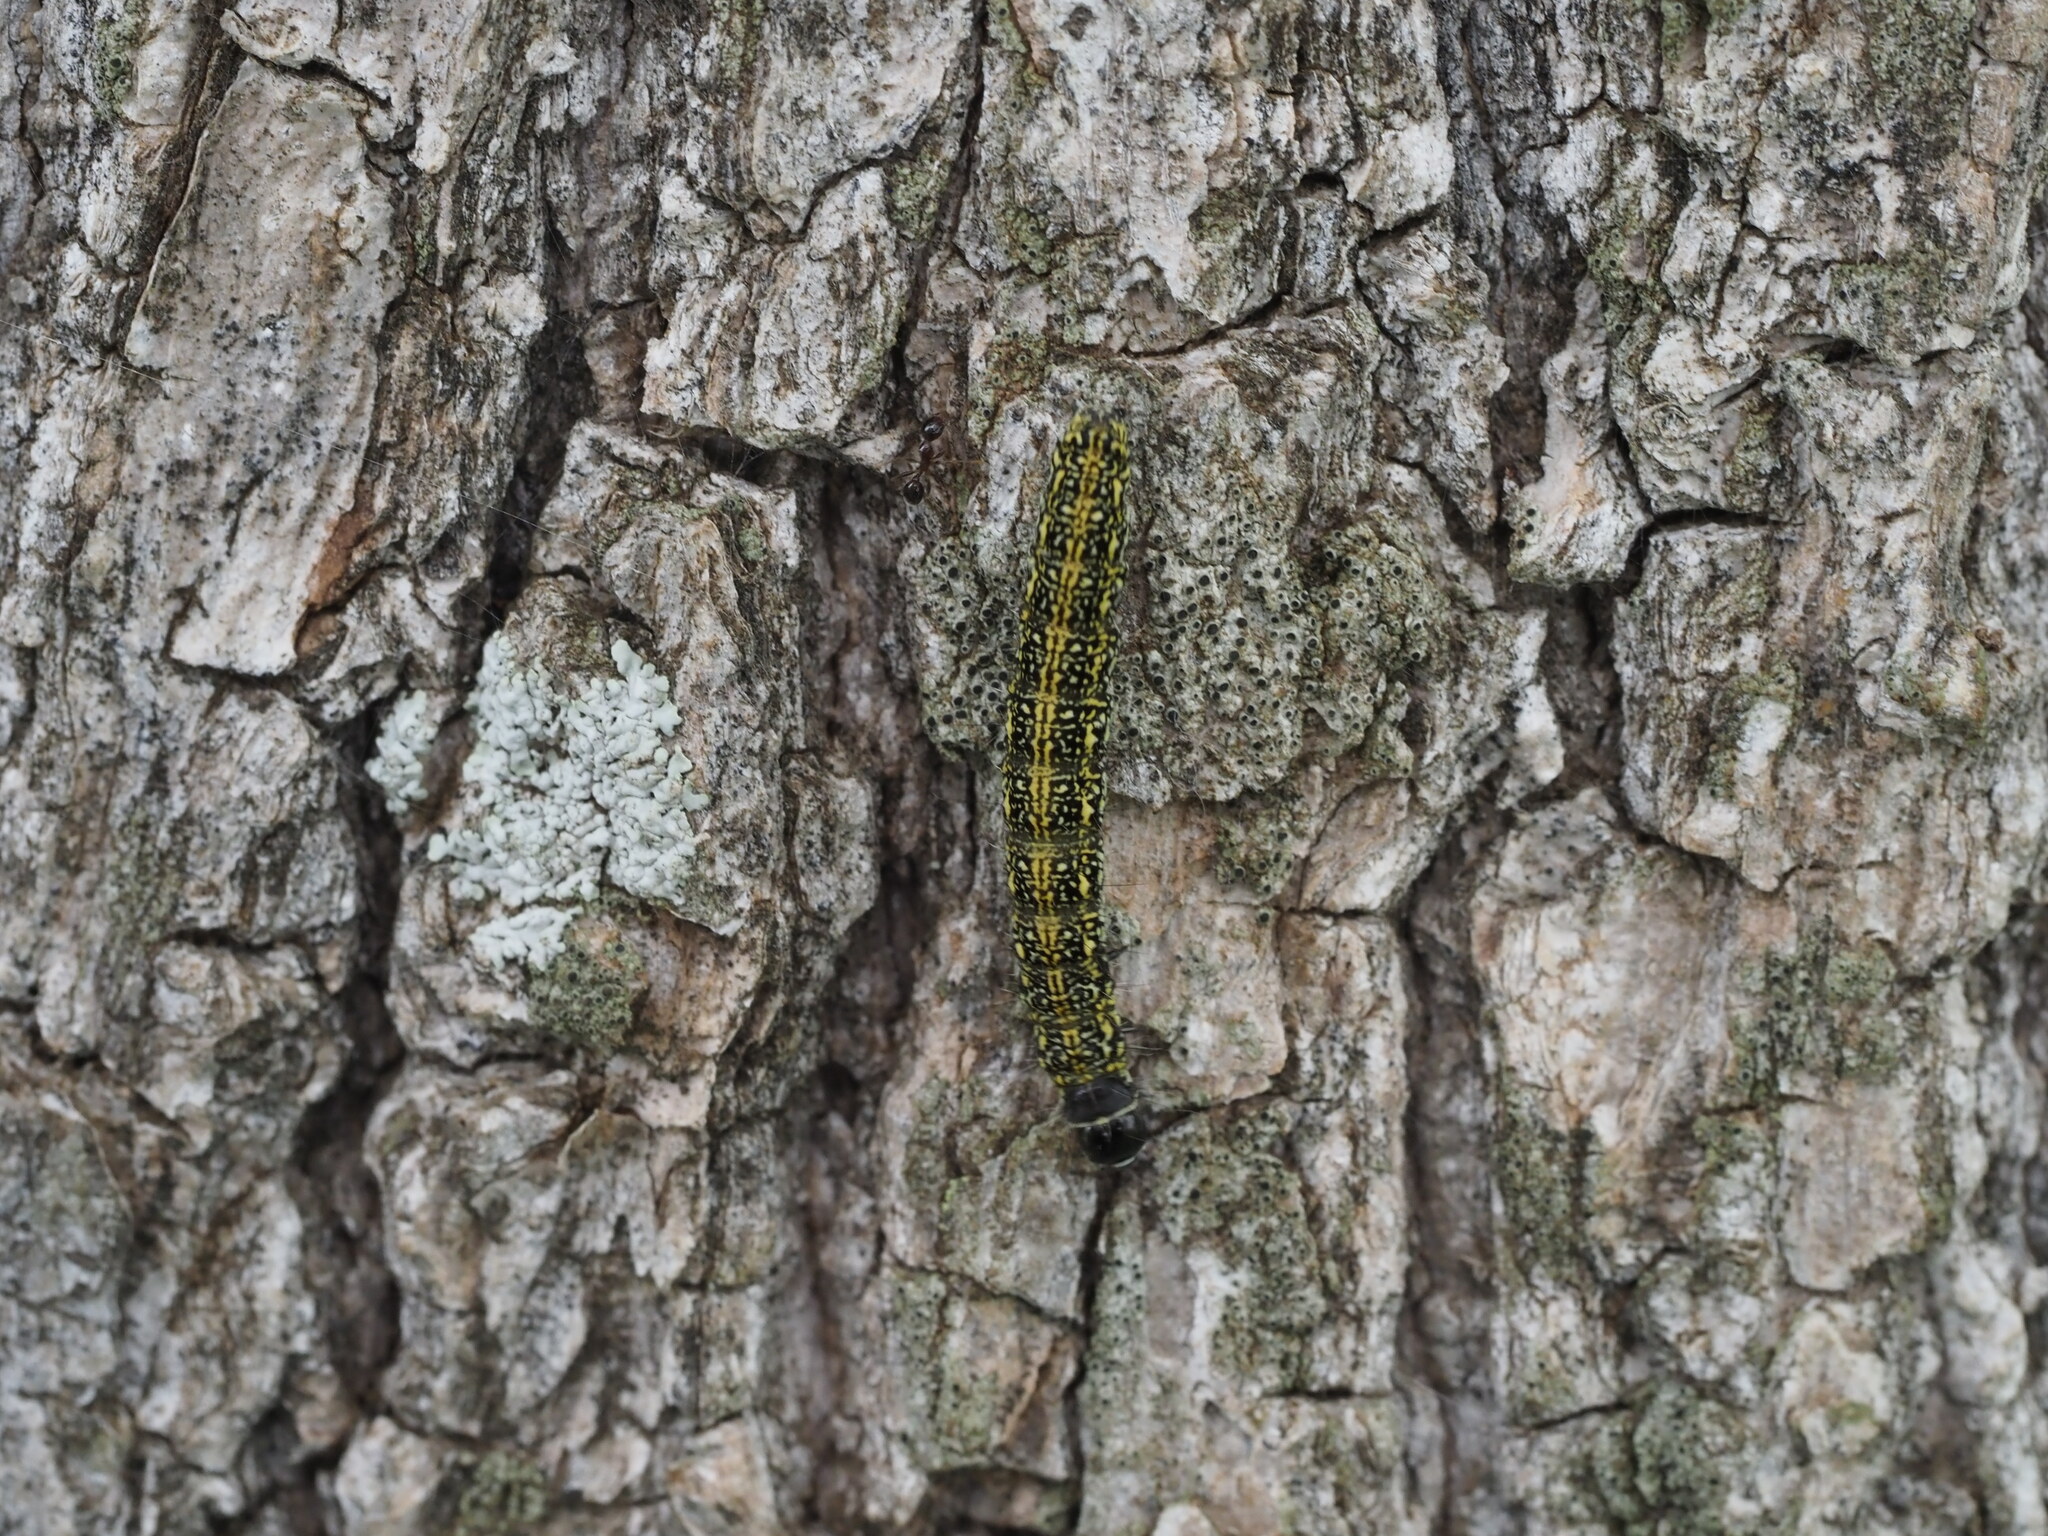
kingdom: Animalia
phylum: Arthropoda
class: Insecta
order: Lepidoptera
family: Ethmiidae
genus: Ethmia
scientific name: Ethmia nigroapicella
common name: Kou leaf worm
